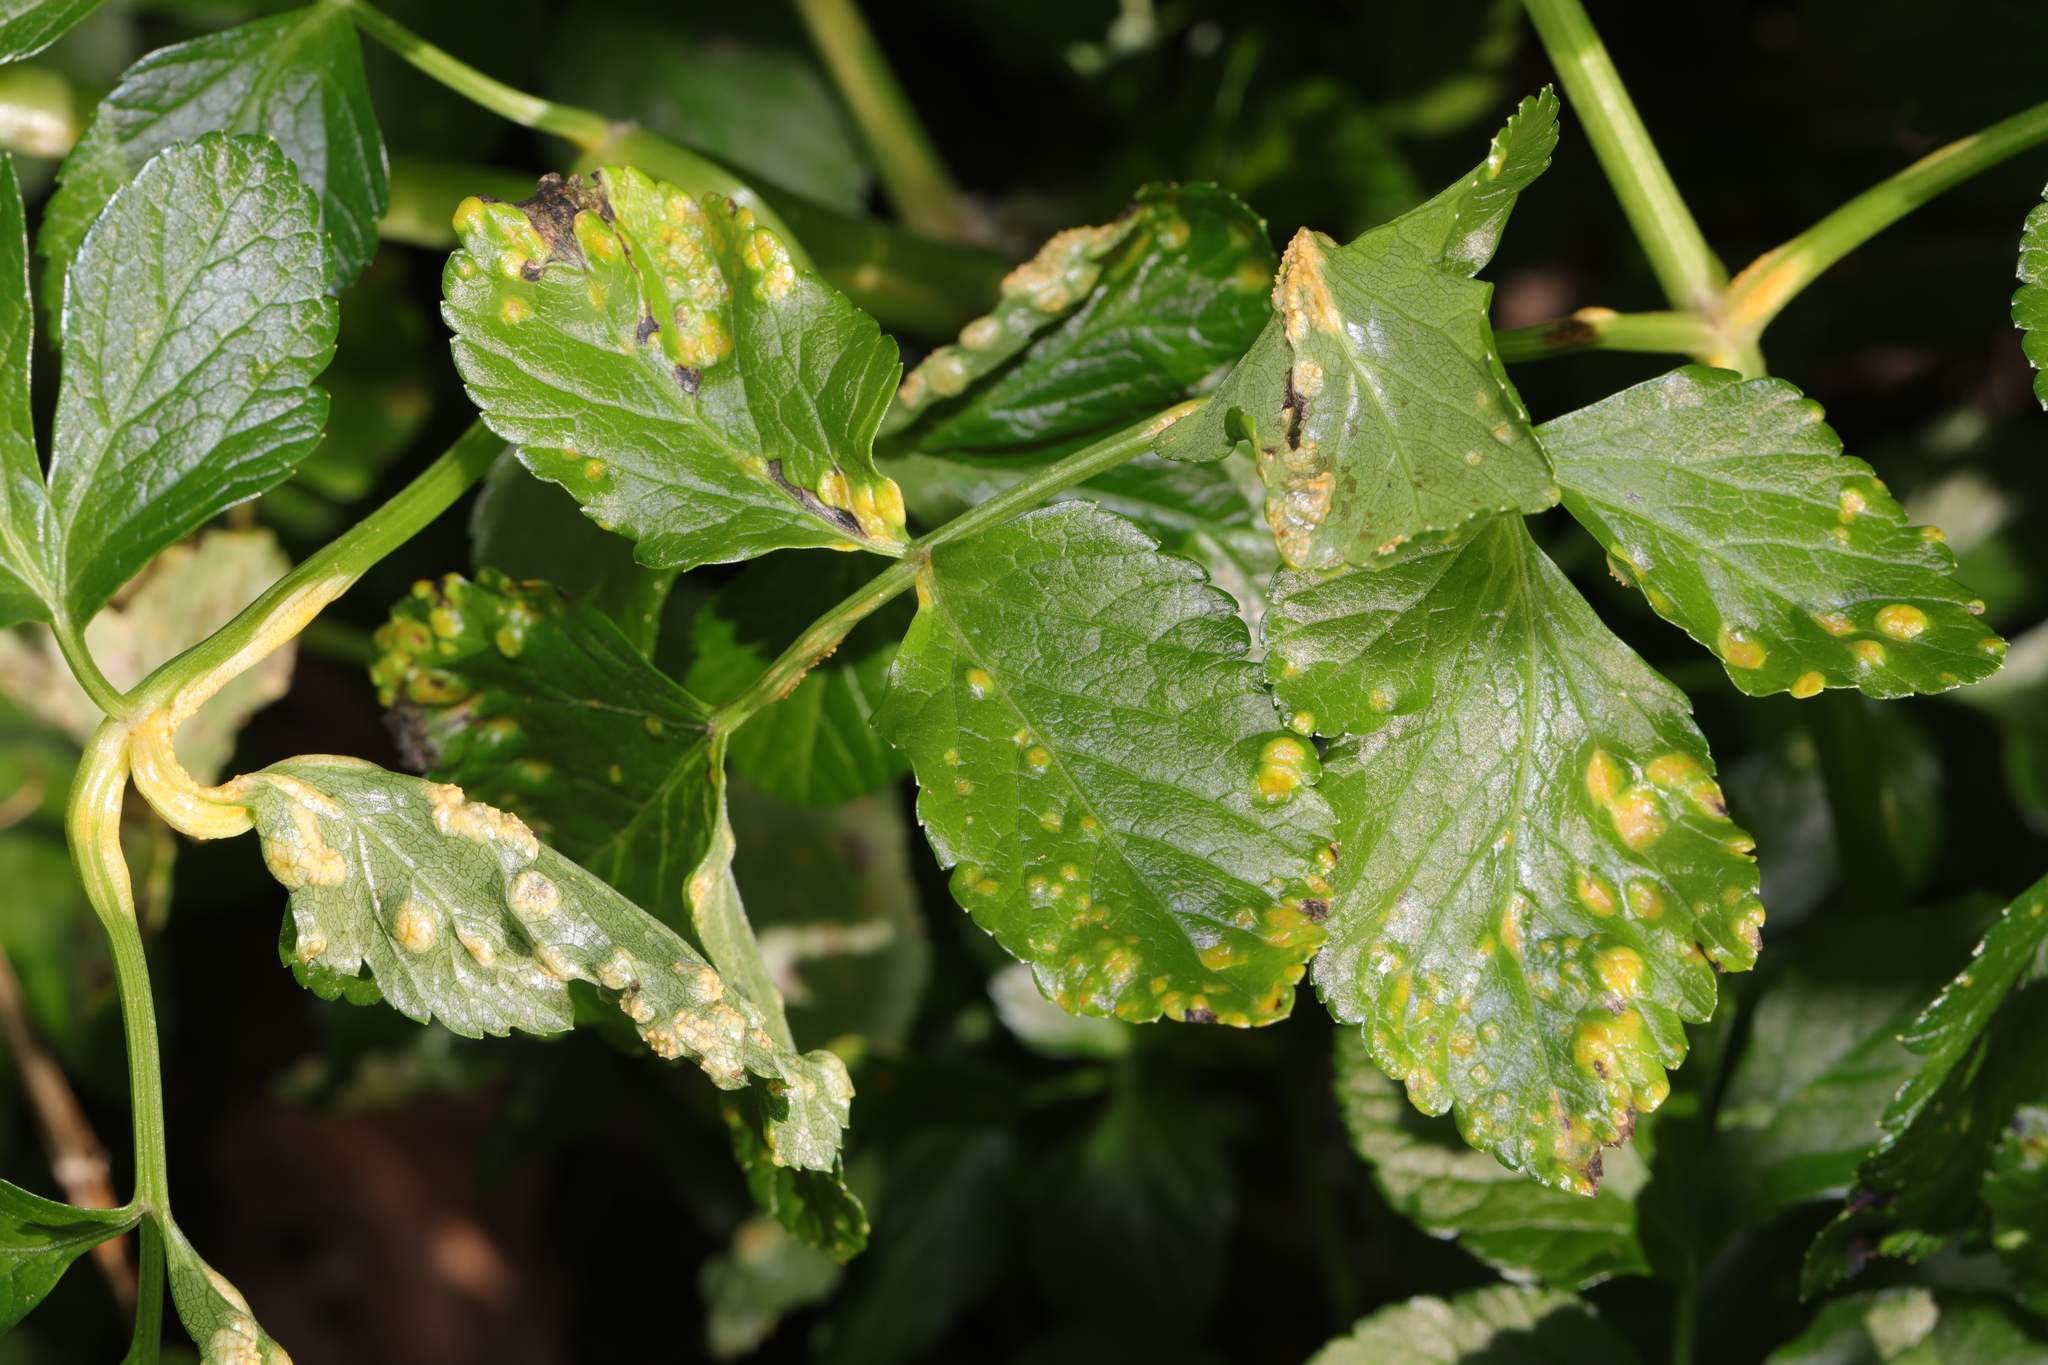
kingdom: Fungi
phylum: Basidiomycota
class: Pucciniomycetes
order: Pucciniales
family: Pucciniaceae
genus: Puccinia
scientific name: Puccinia smyrnii
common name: Alexanders rust
